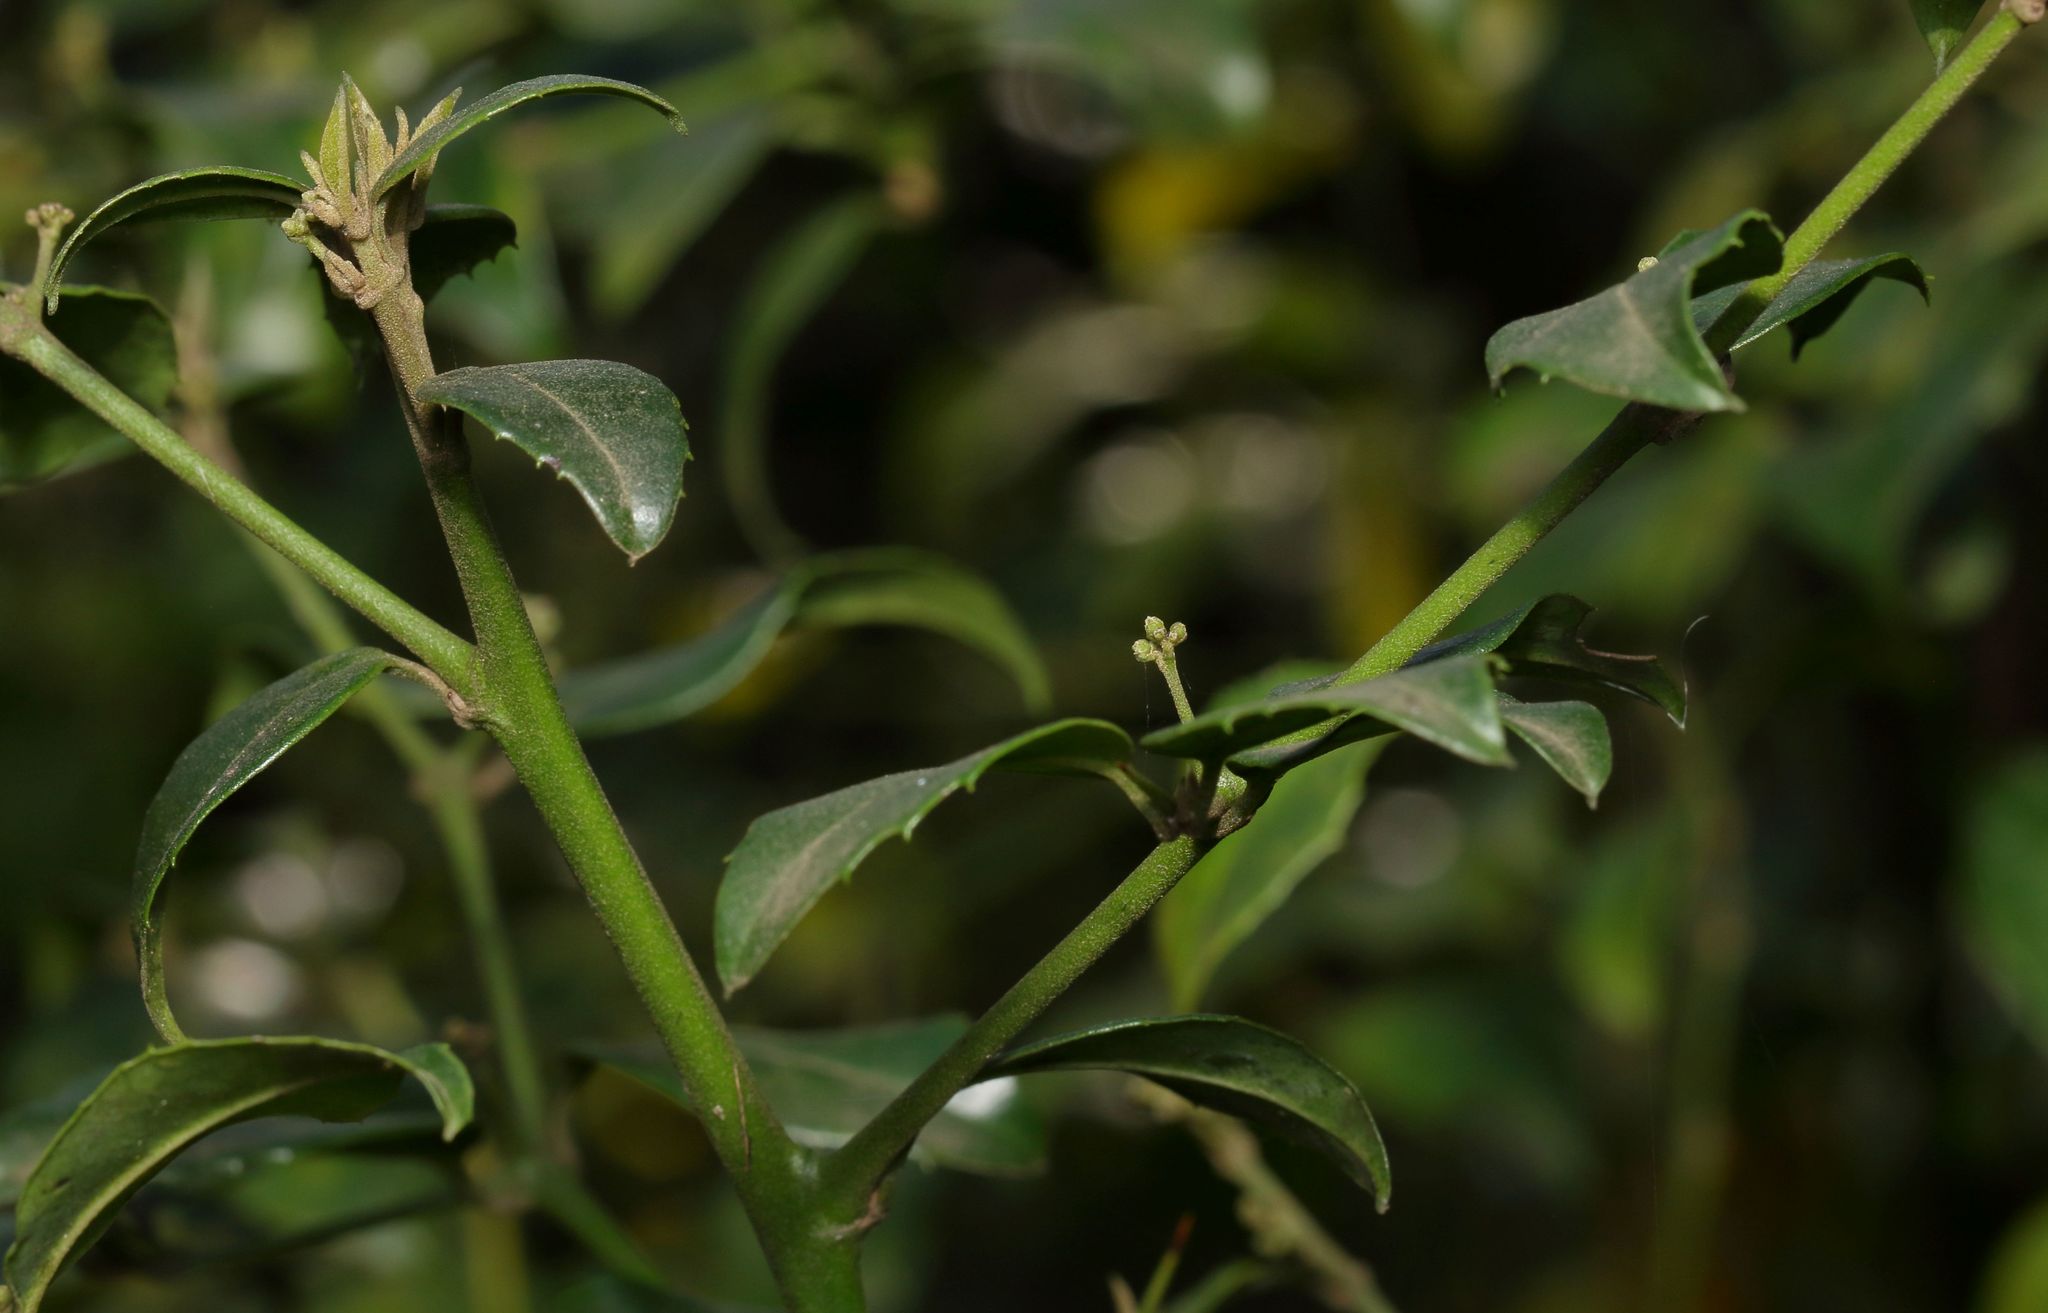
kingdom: Plantae
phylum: Tracheophyta
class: Magnoliopsida
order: Icacinales
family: Icacinaceae
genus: Cassinopsis
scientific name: Cassinopsis ilicifolia
